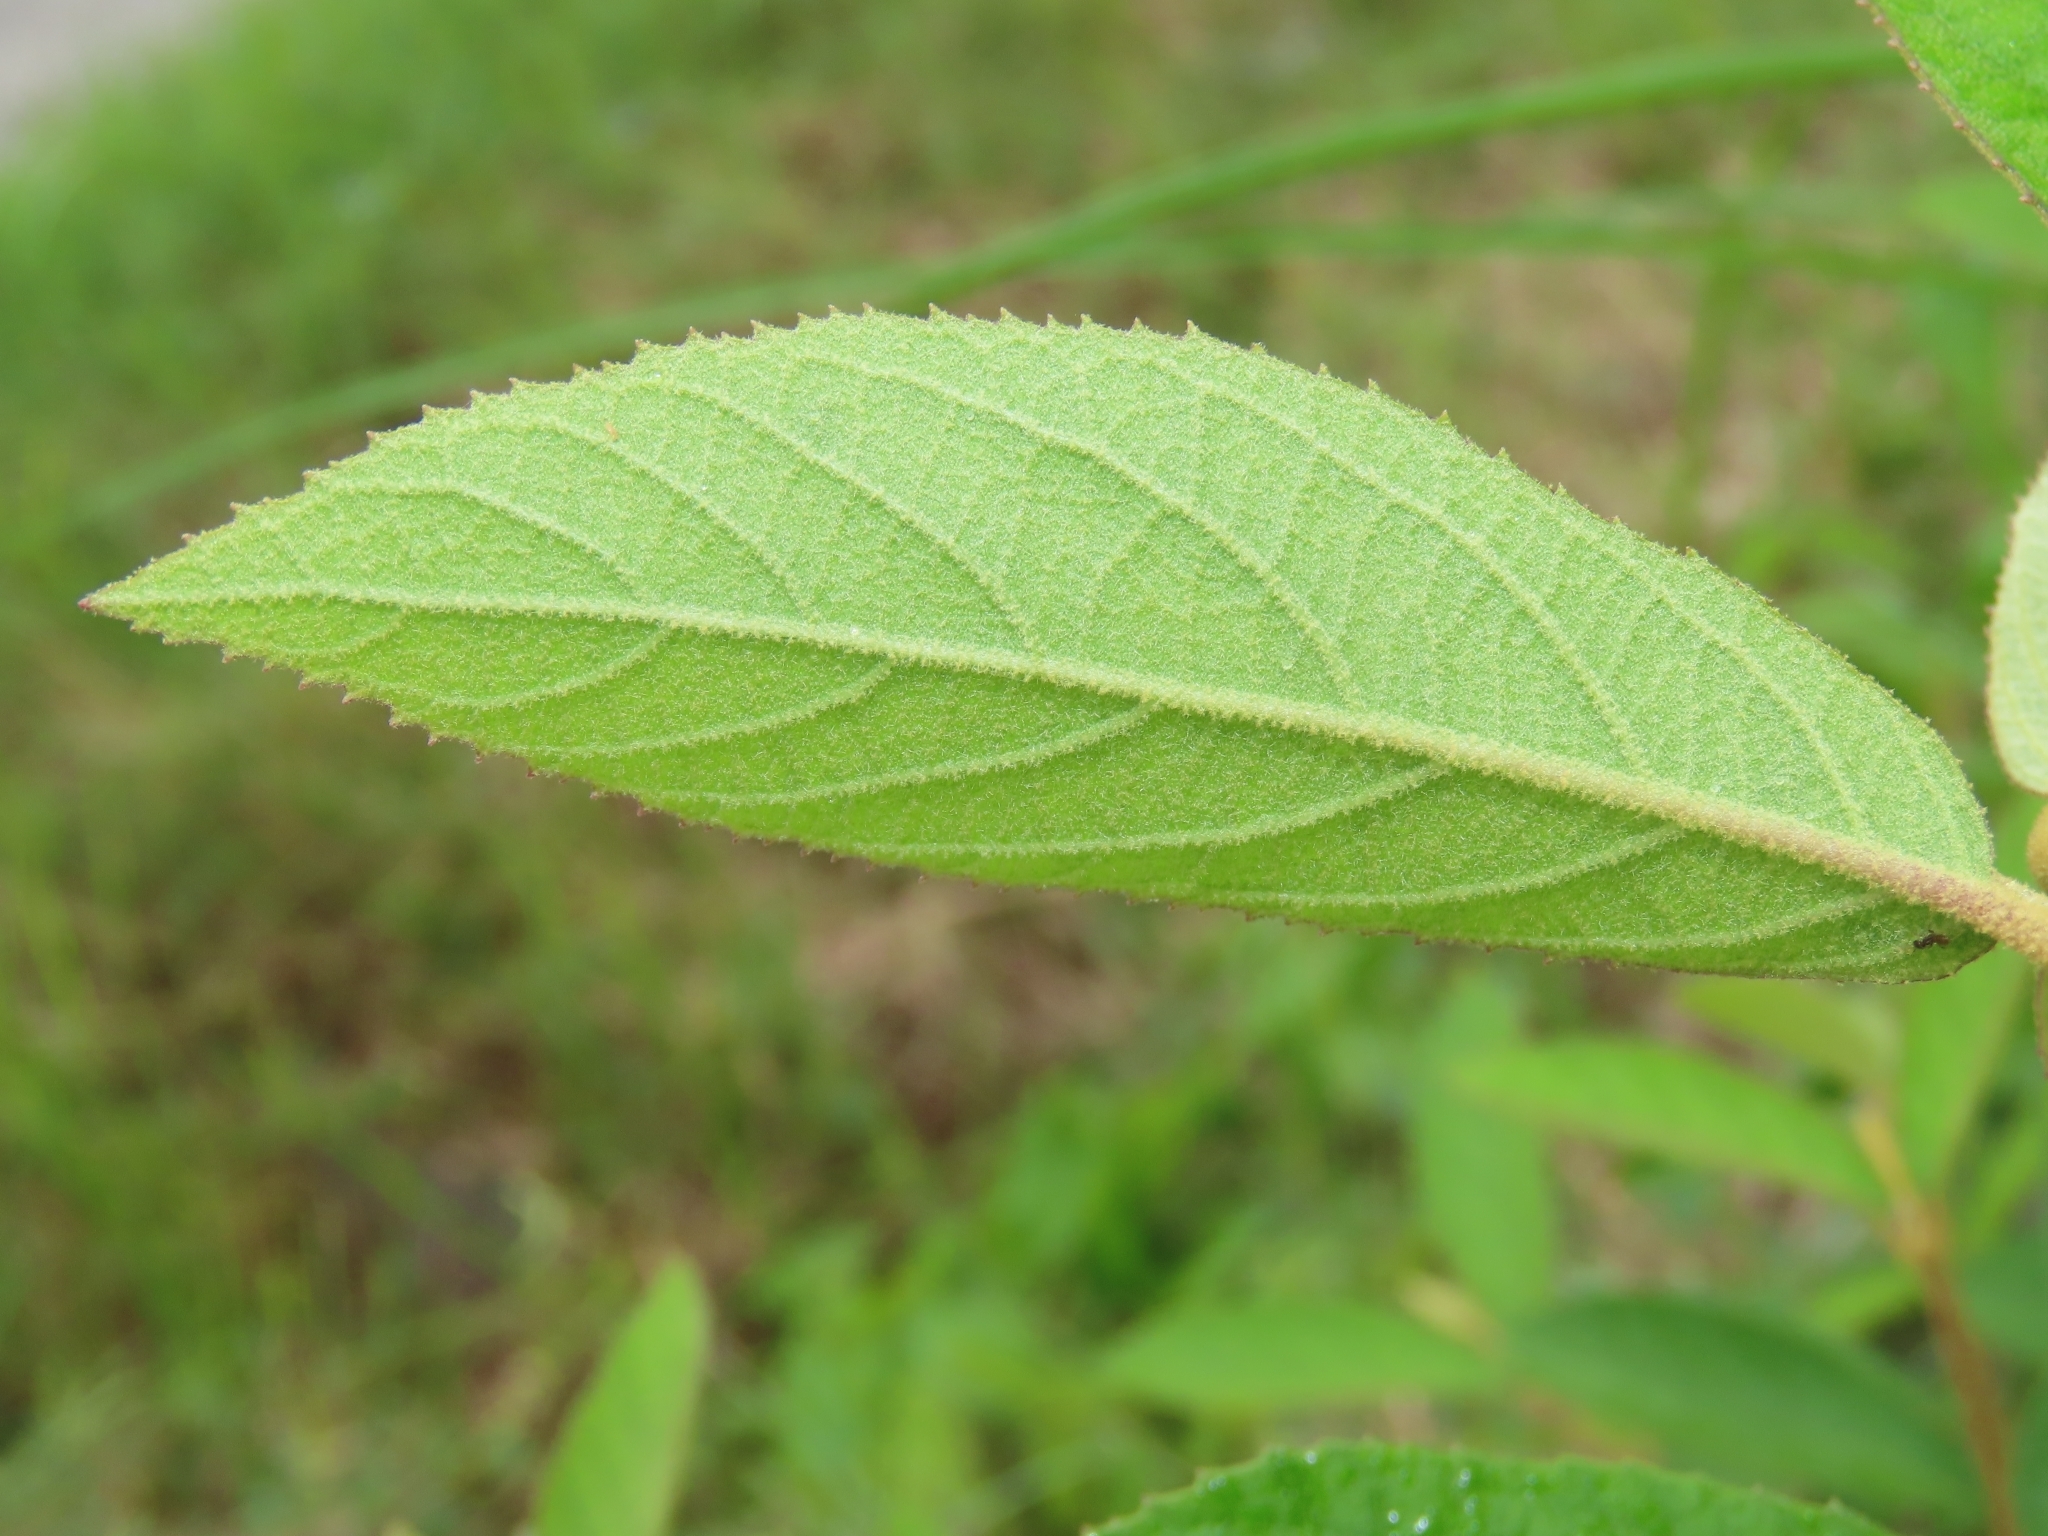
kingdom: Plantae
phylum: Tracheophyta
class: Magnoliopsida
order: Lamiales
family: Lamiaceae
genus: Callicarpa
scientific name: Callicarpa pedunculata
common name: Velvetleaf
